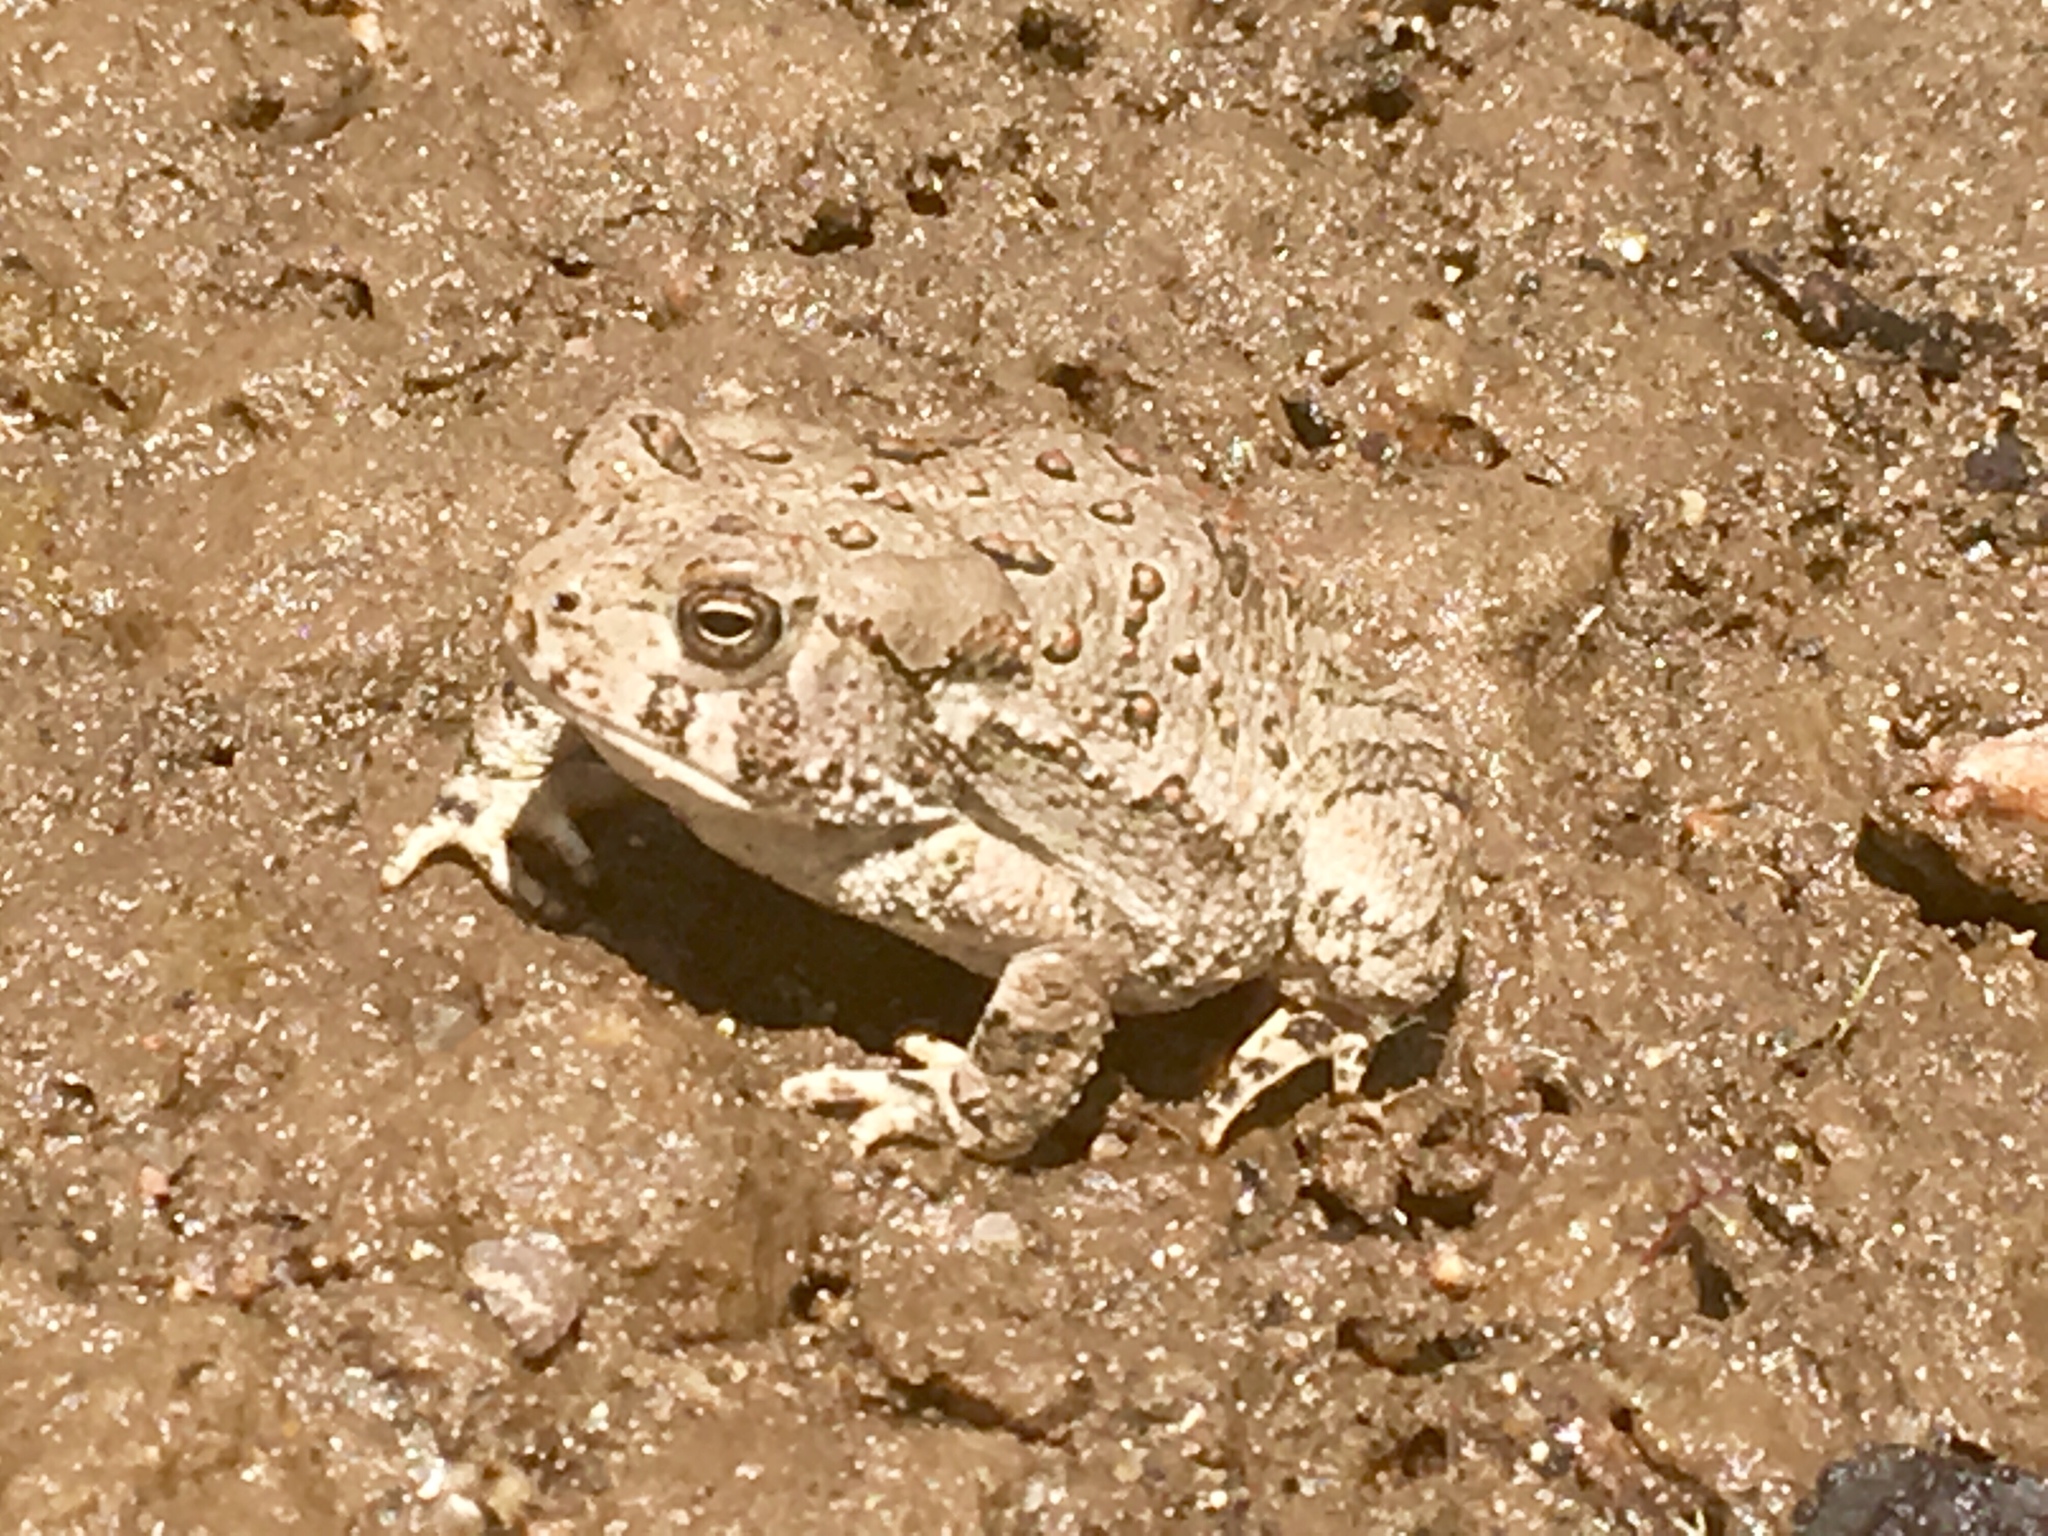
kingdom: Animalia
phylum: Chordata
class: Amphibia
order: Anura
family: Bufonidae
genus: Anaxyrus
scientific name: Anaxyrus woodhousii
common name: Woodhouse's toad
